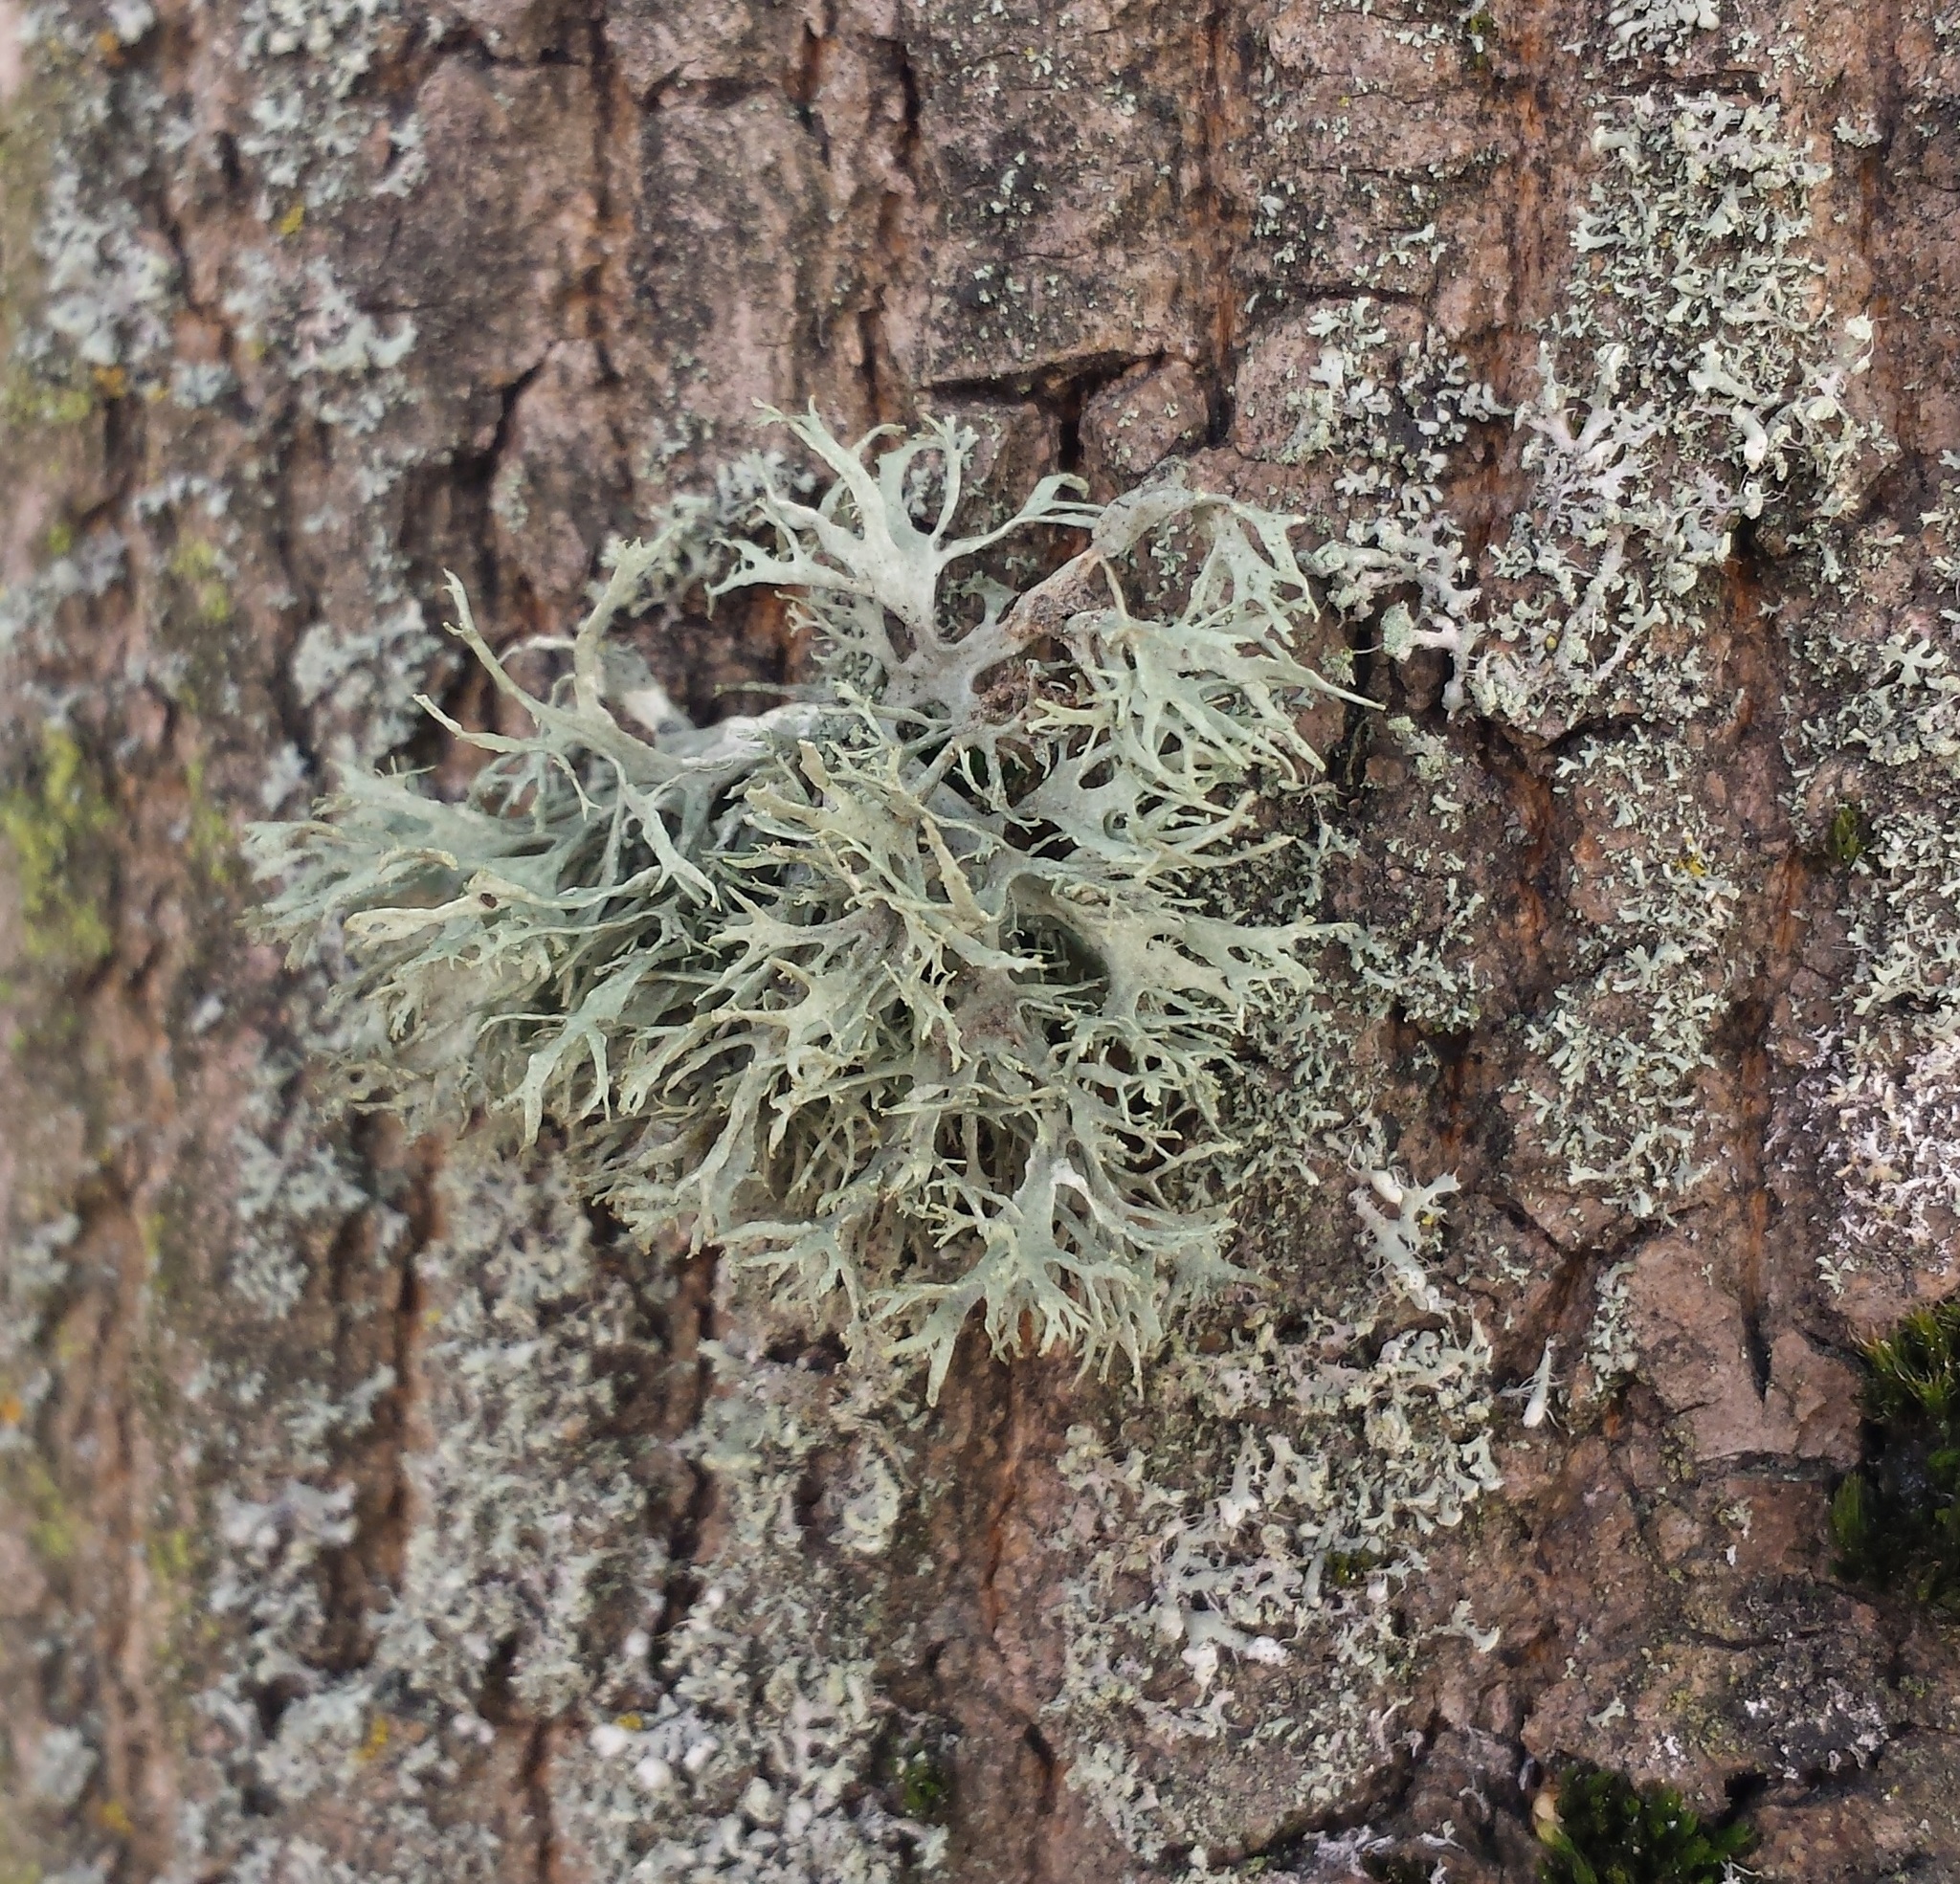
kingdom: Fungi
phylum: Ascomycota
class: Lecanoromycetes
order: Lecanorales
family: Parmeliaceae
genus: Evernia
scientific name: Evernia prunastri
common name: Oak moss
